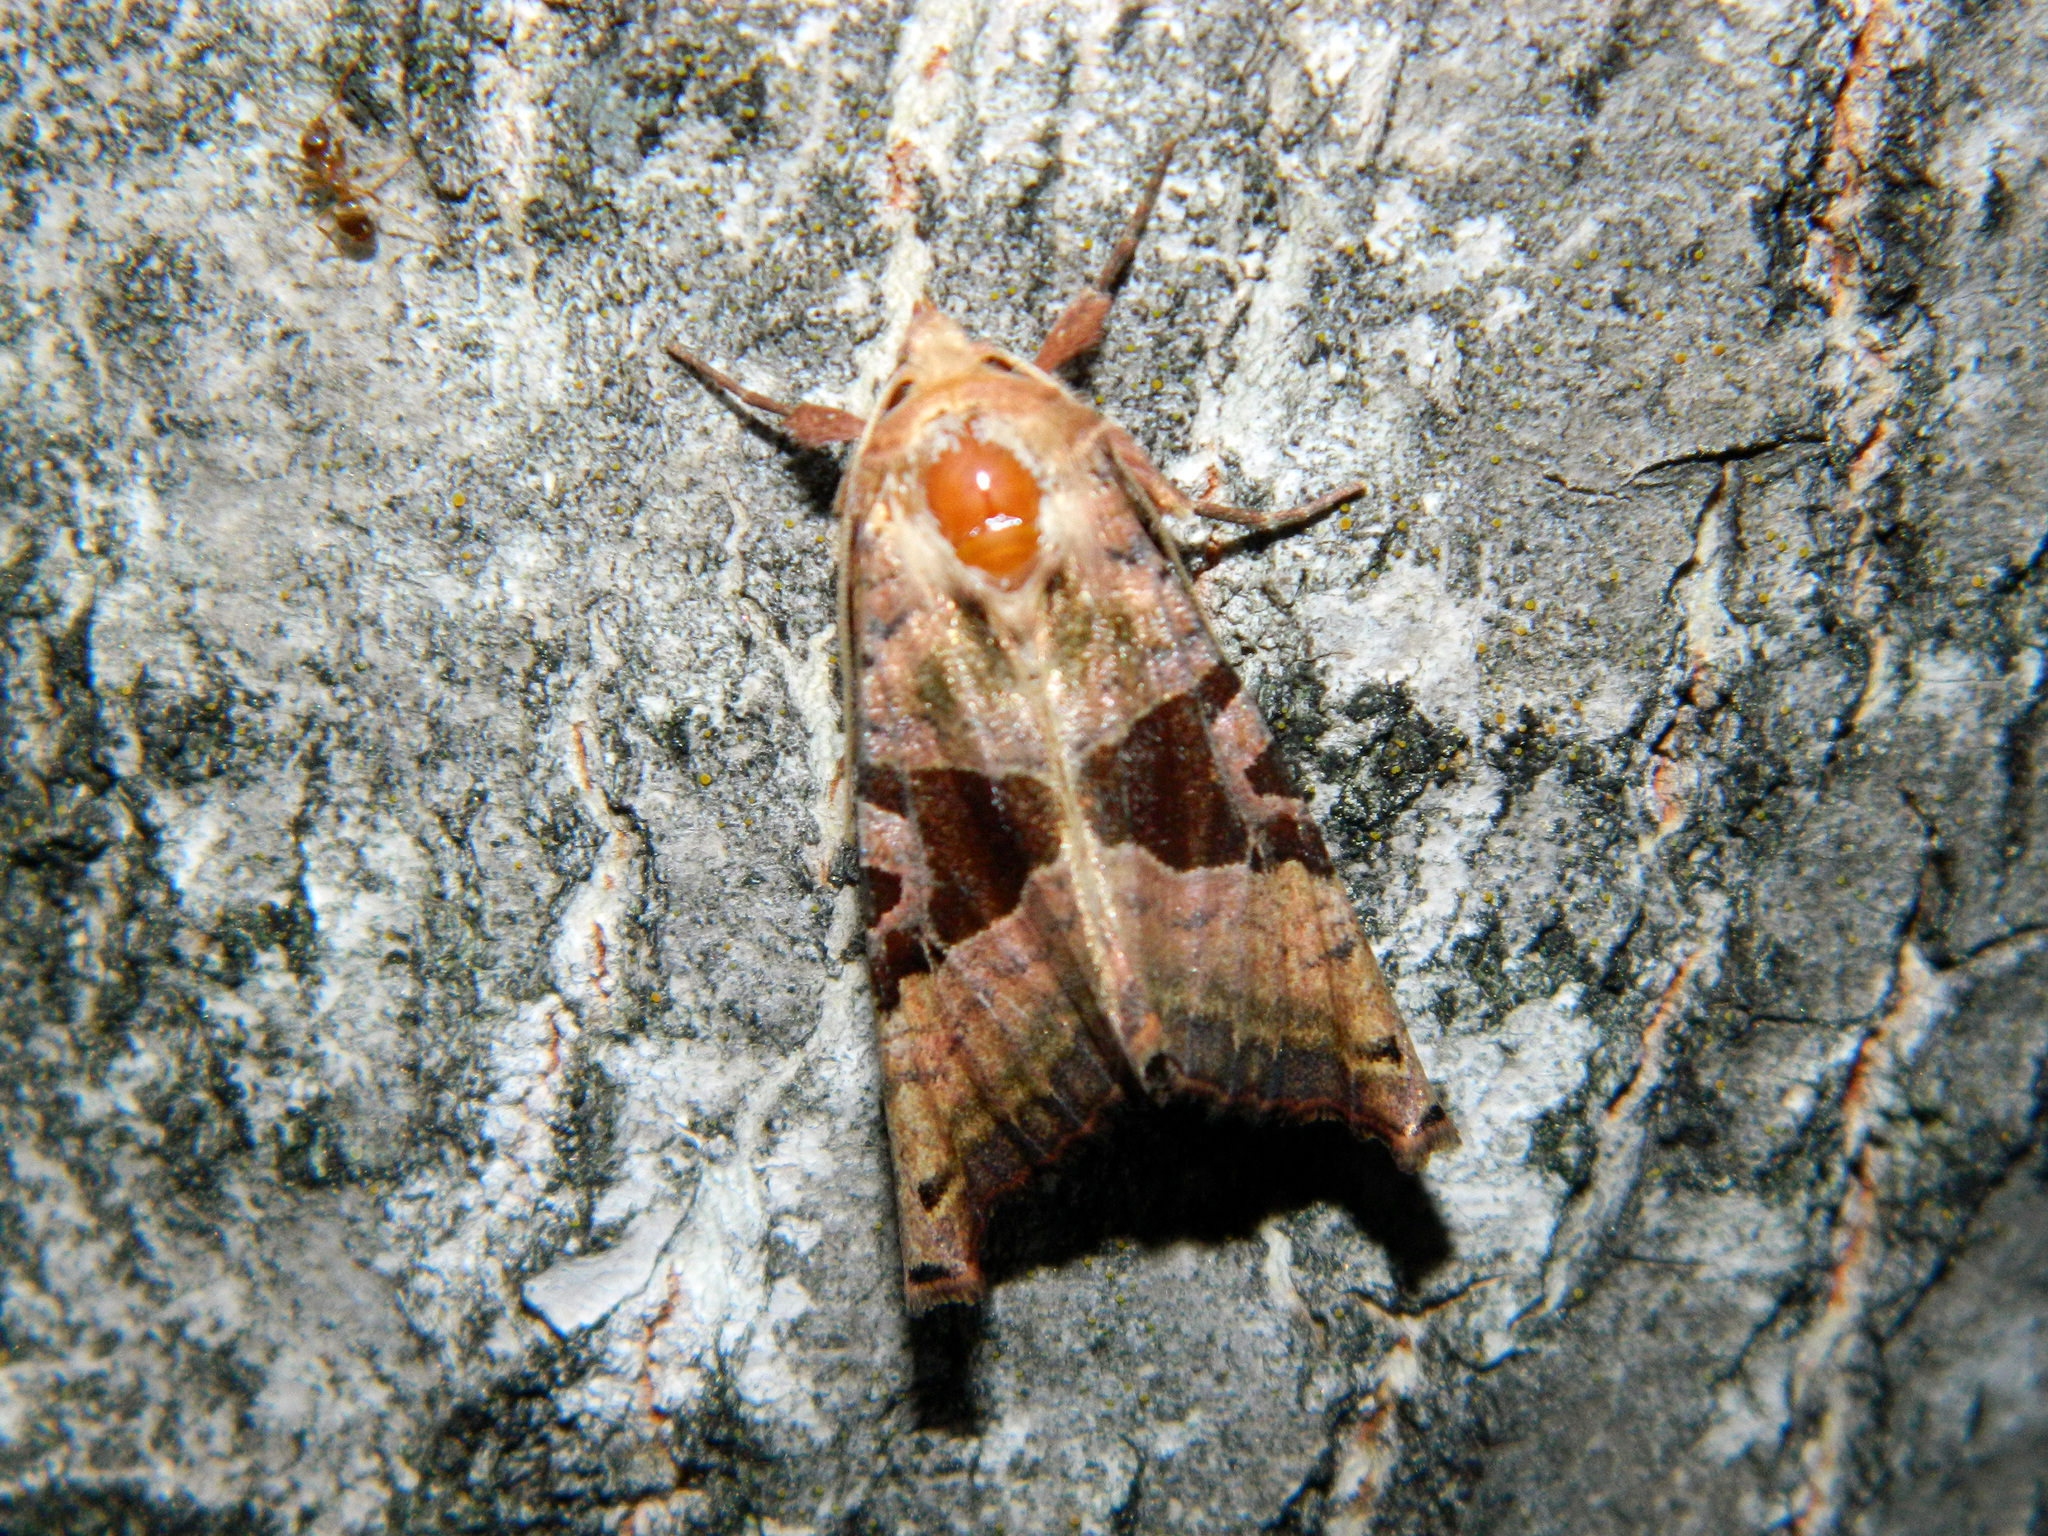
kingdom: Animalia
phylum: Arthropoda
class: Insecta
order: Lepidoptera
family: Noctuidae
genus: Phlogophora
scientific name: Phlogophora periculosa
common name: Brown angle shades
